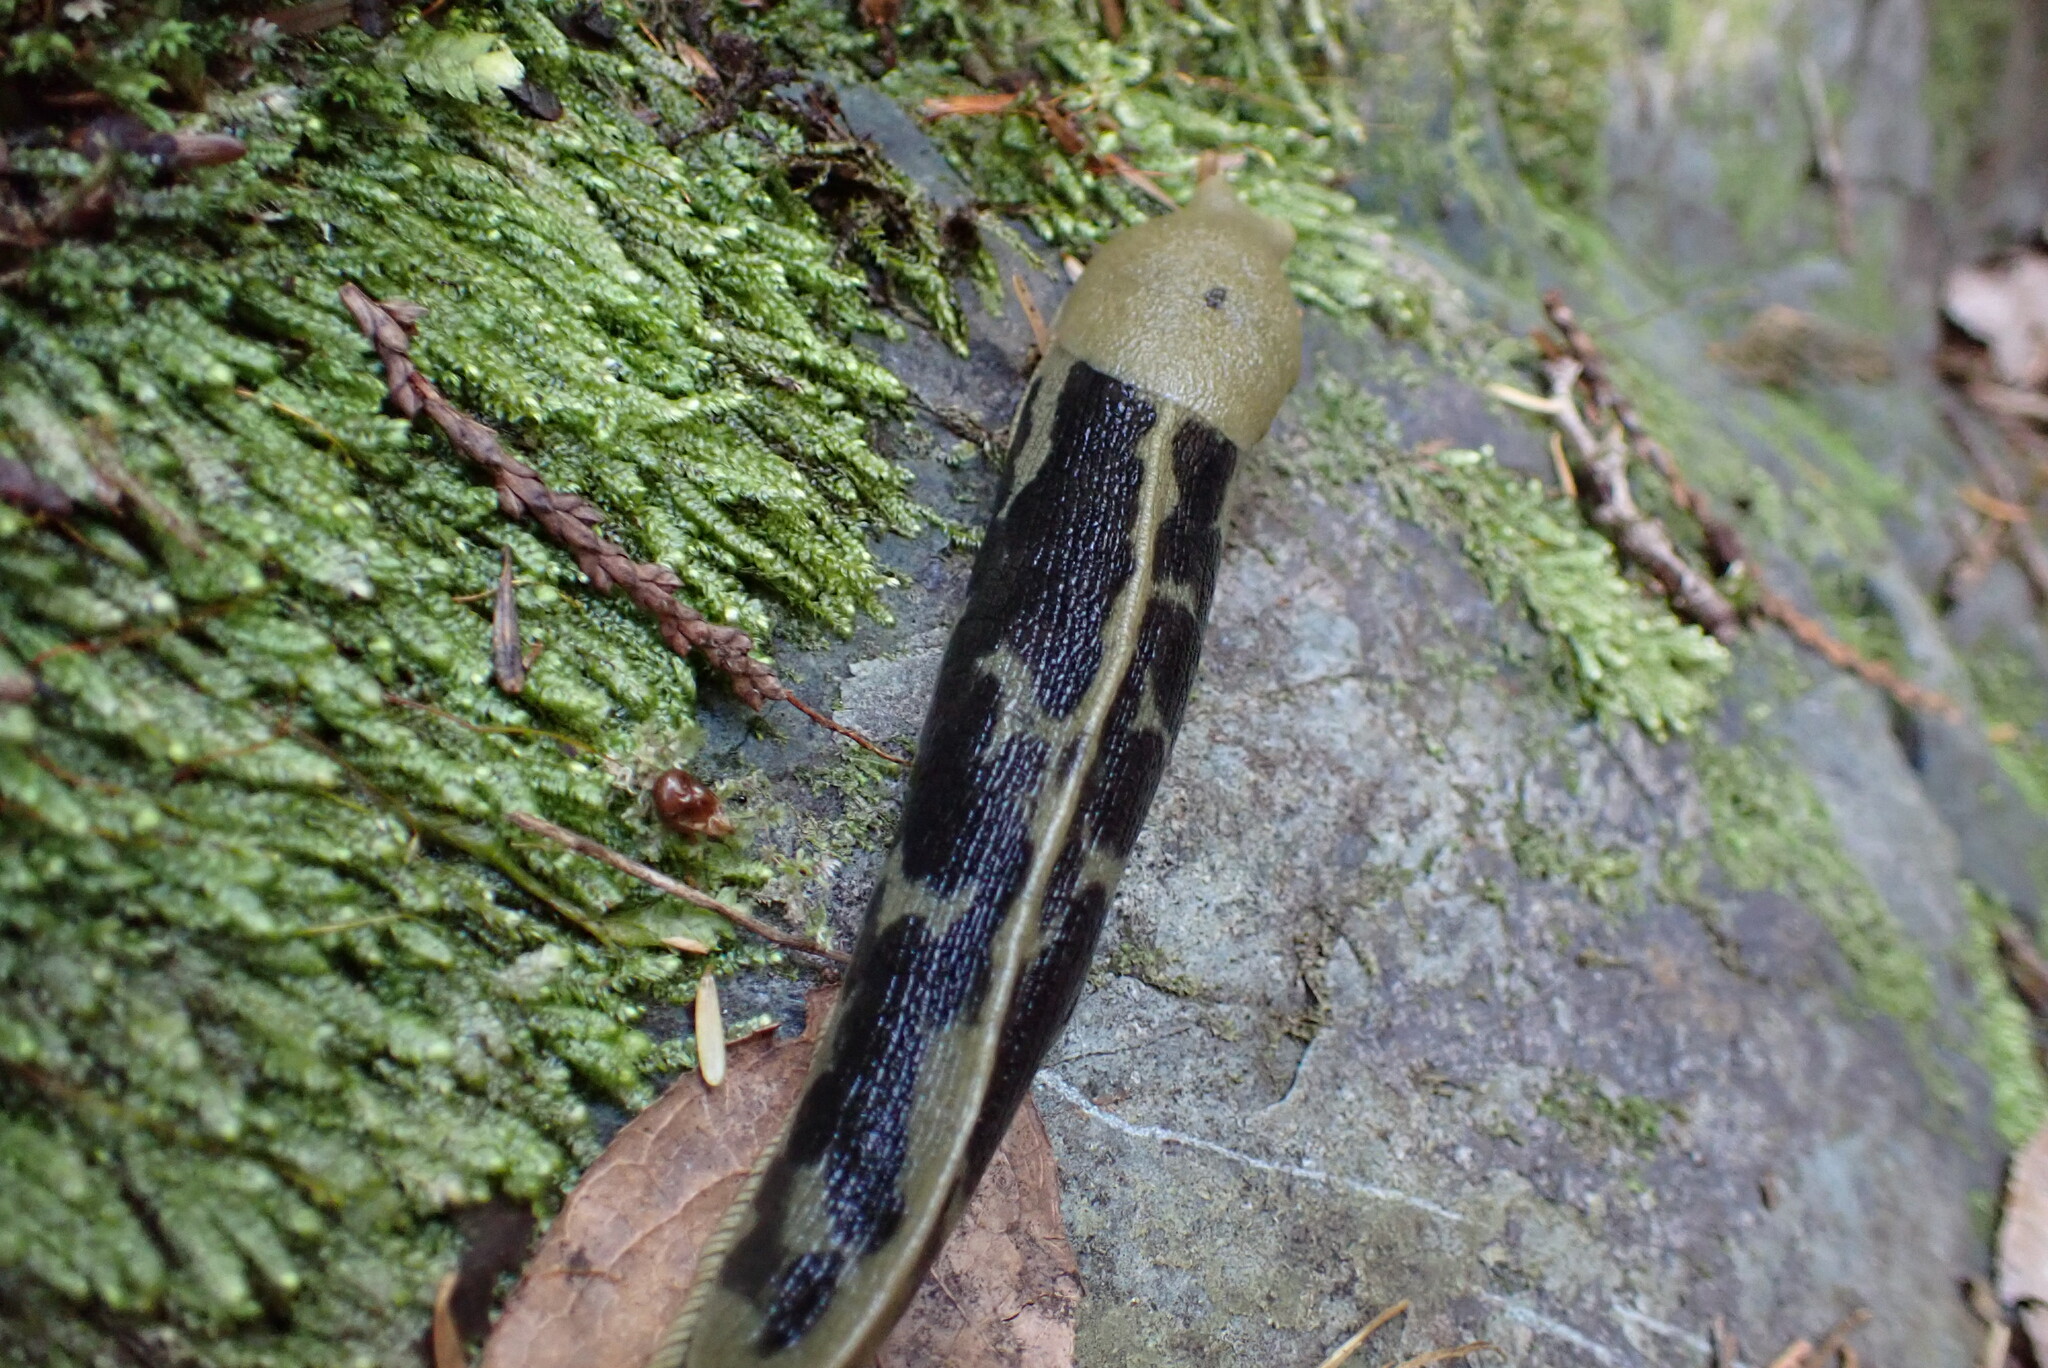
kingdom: Animalia
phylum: Mollusca
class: Gastropoda
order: Stylommatophora
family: Ariolimacidae
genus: Ariolimax
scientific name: Ariolimax columbianus
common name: Pacific banana slug
